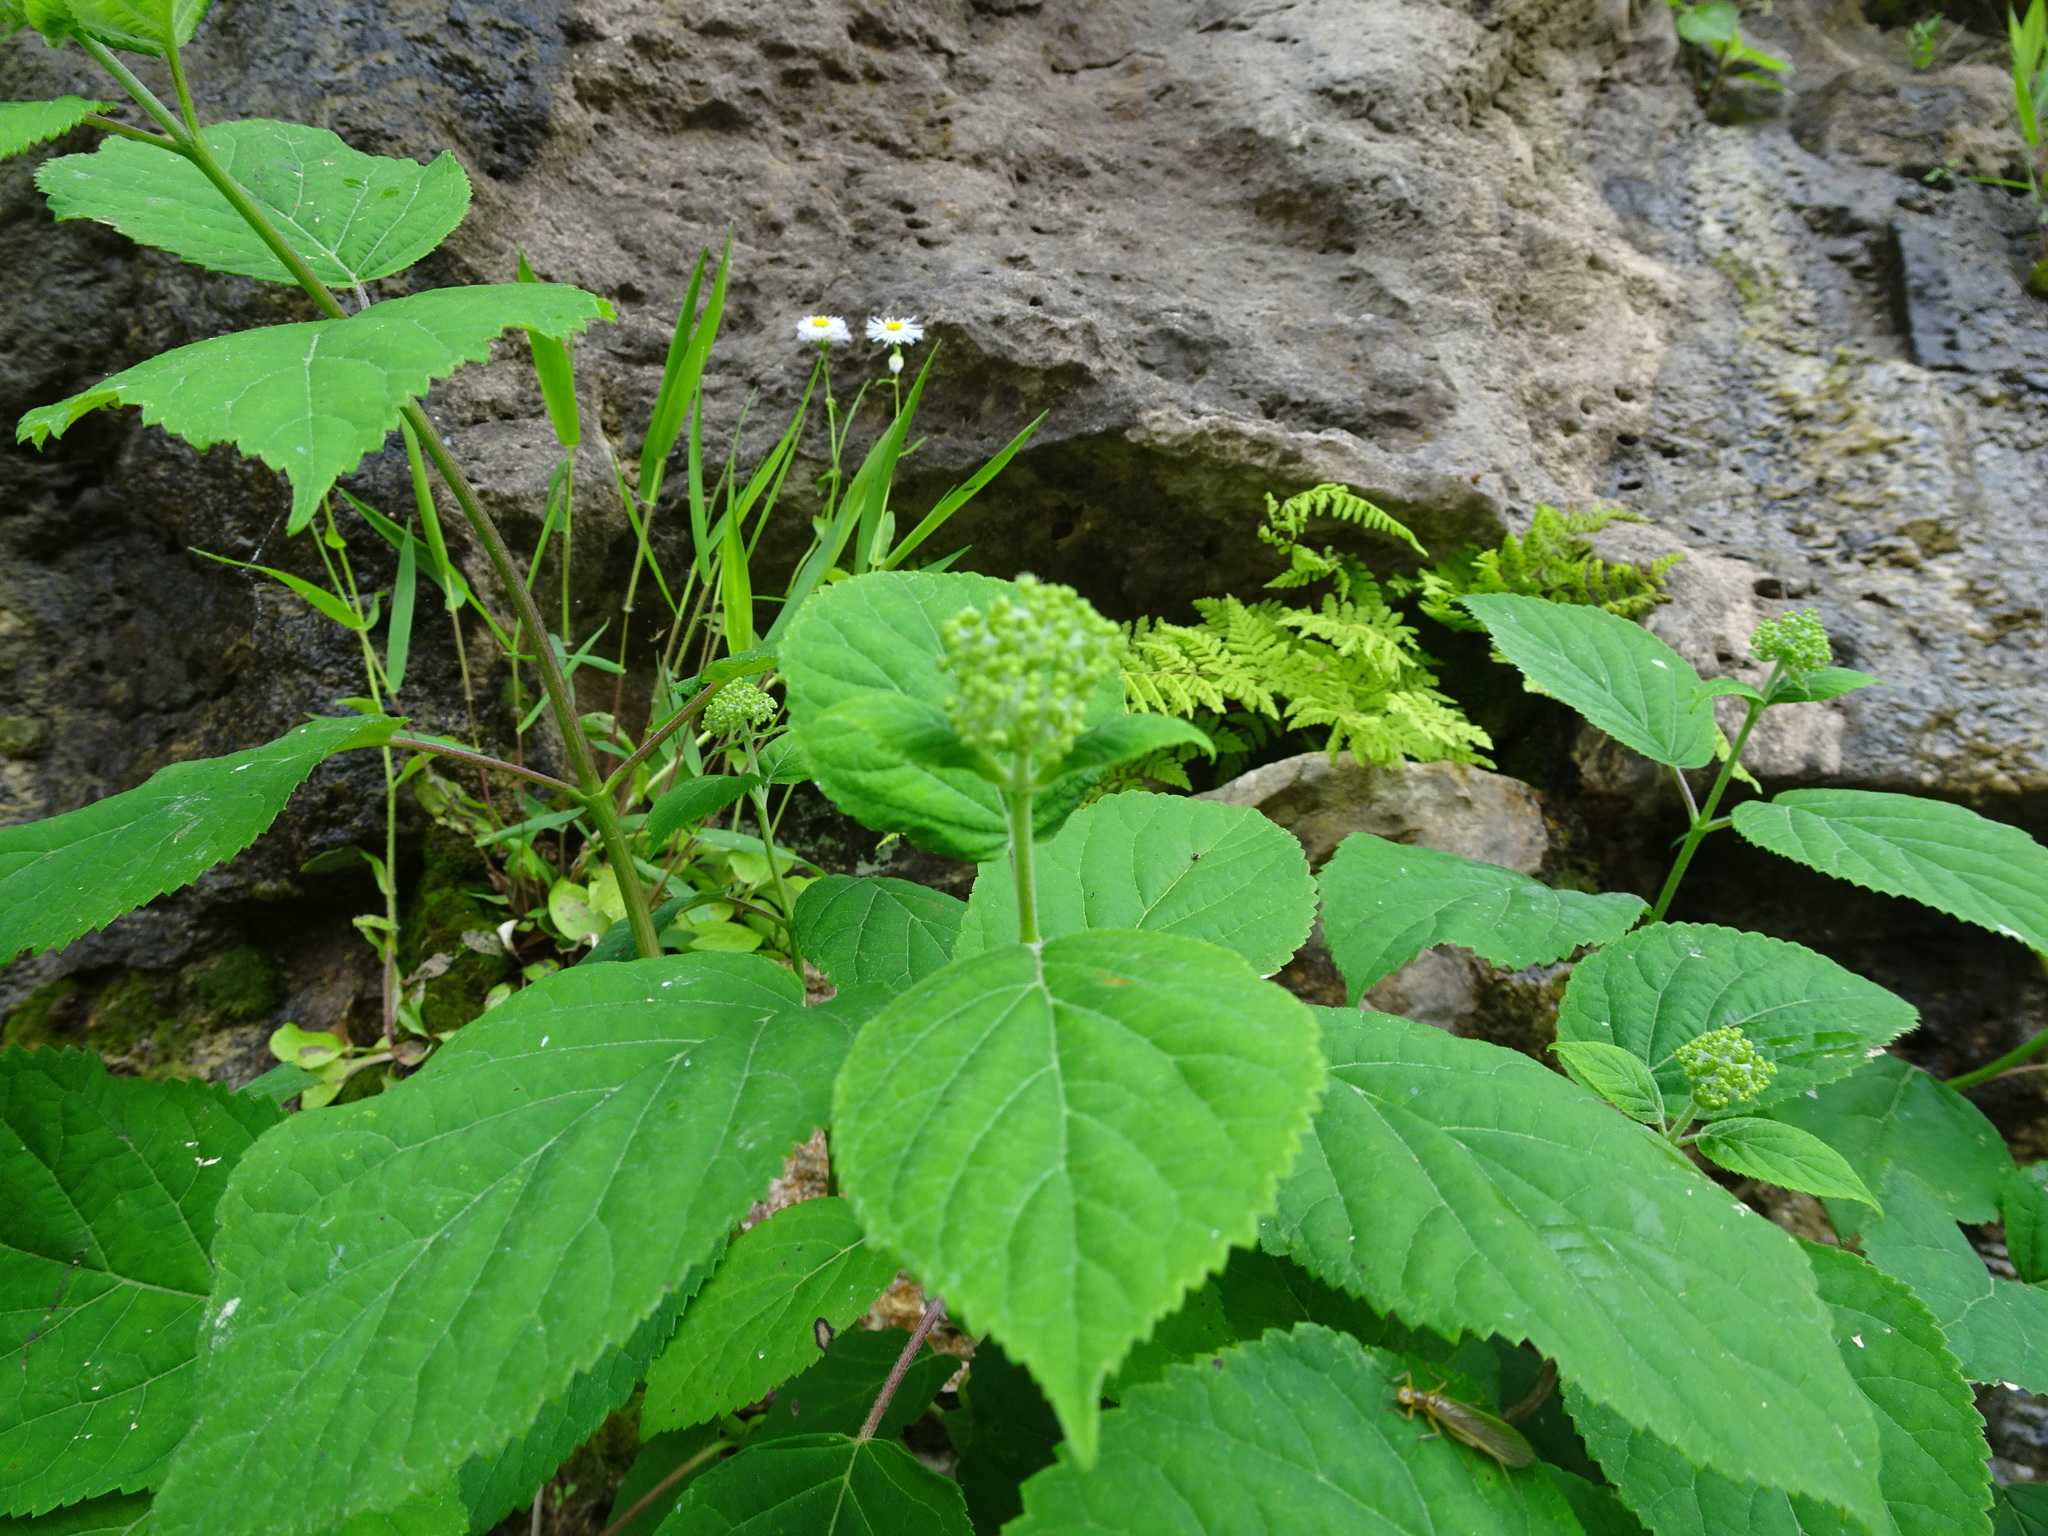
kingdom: Plantae
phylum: Tracheophyta
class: Magnoliopsida
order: Cornales
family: Hydrangeaceae
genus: Hydrangea
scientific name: Hydrangea arborescens
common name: Sevenbark
